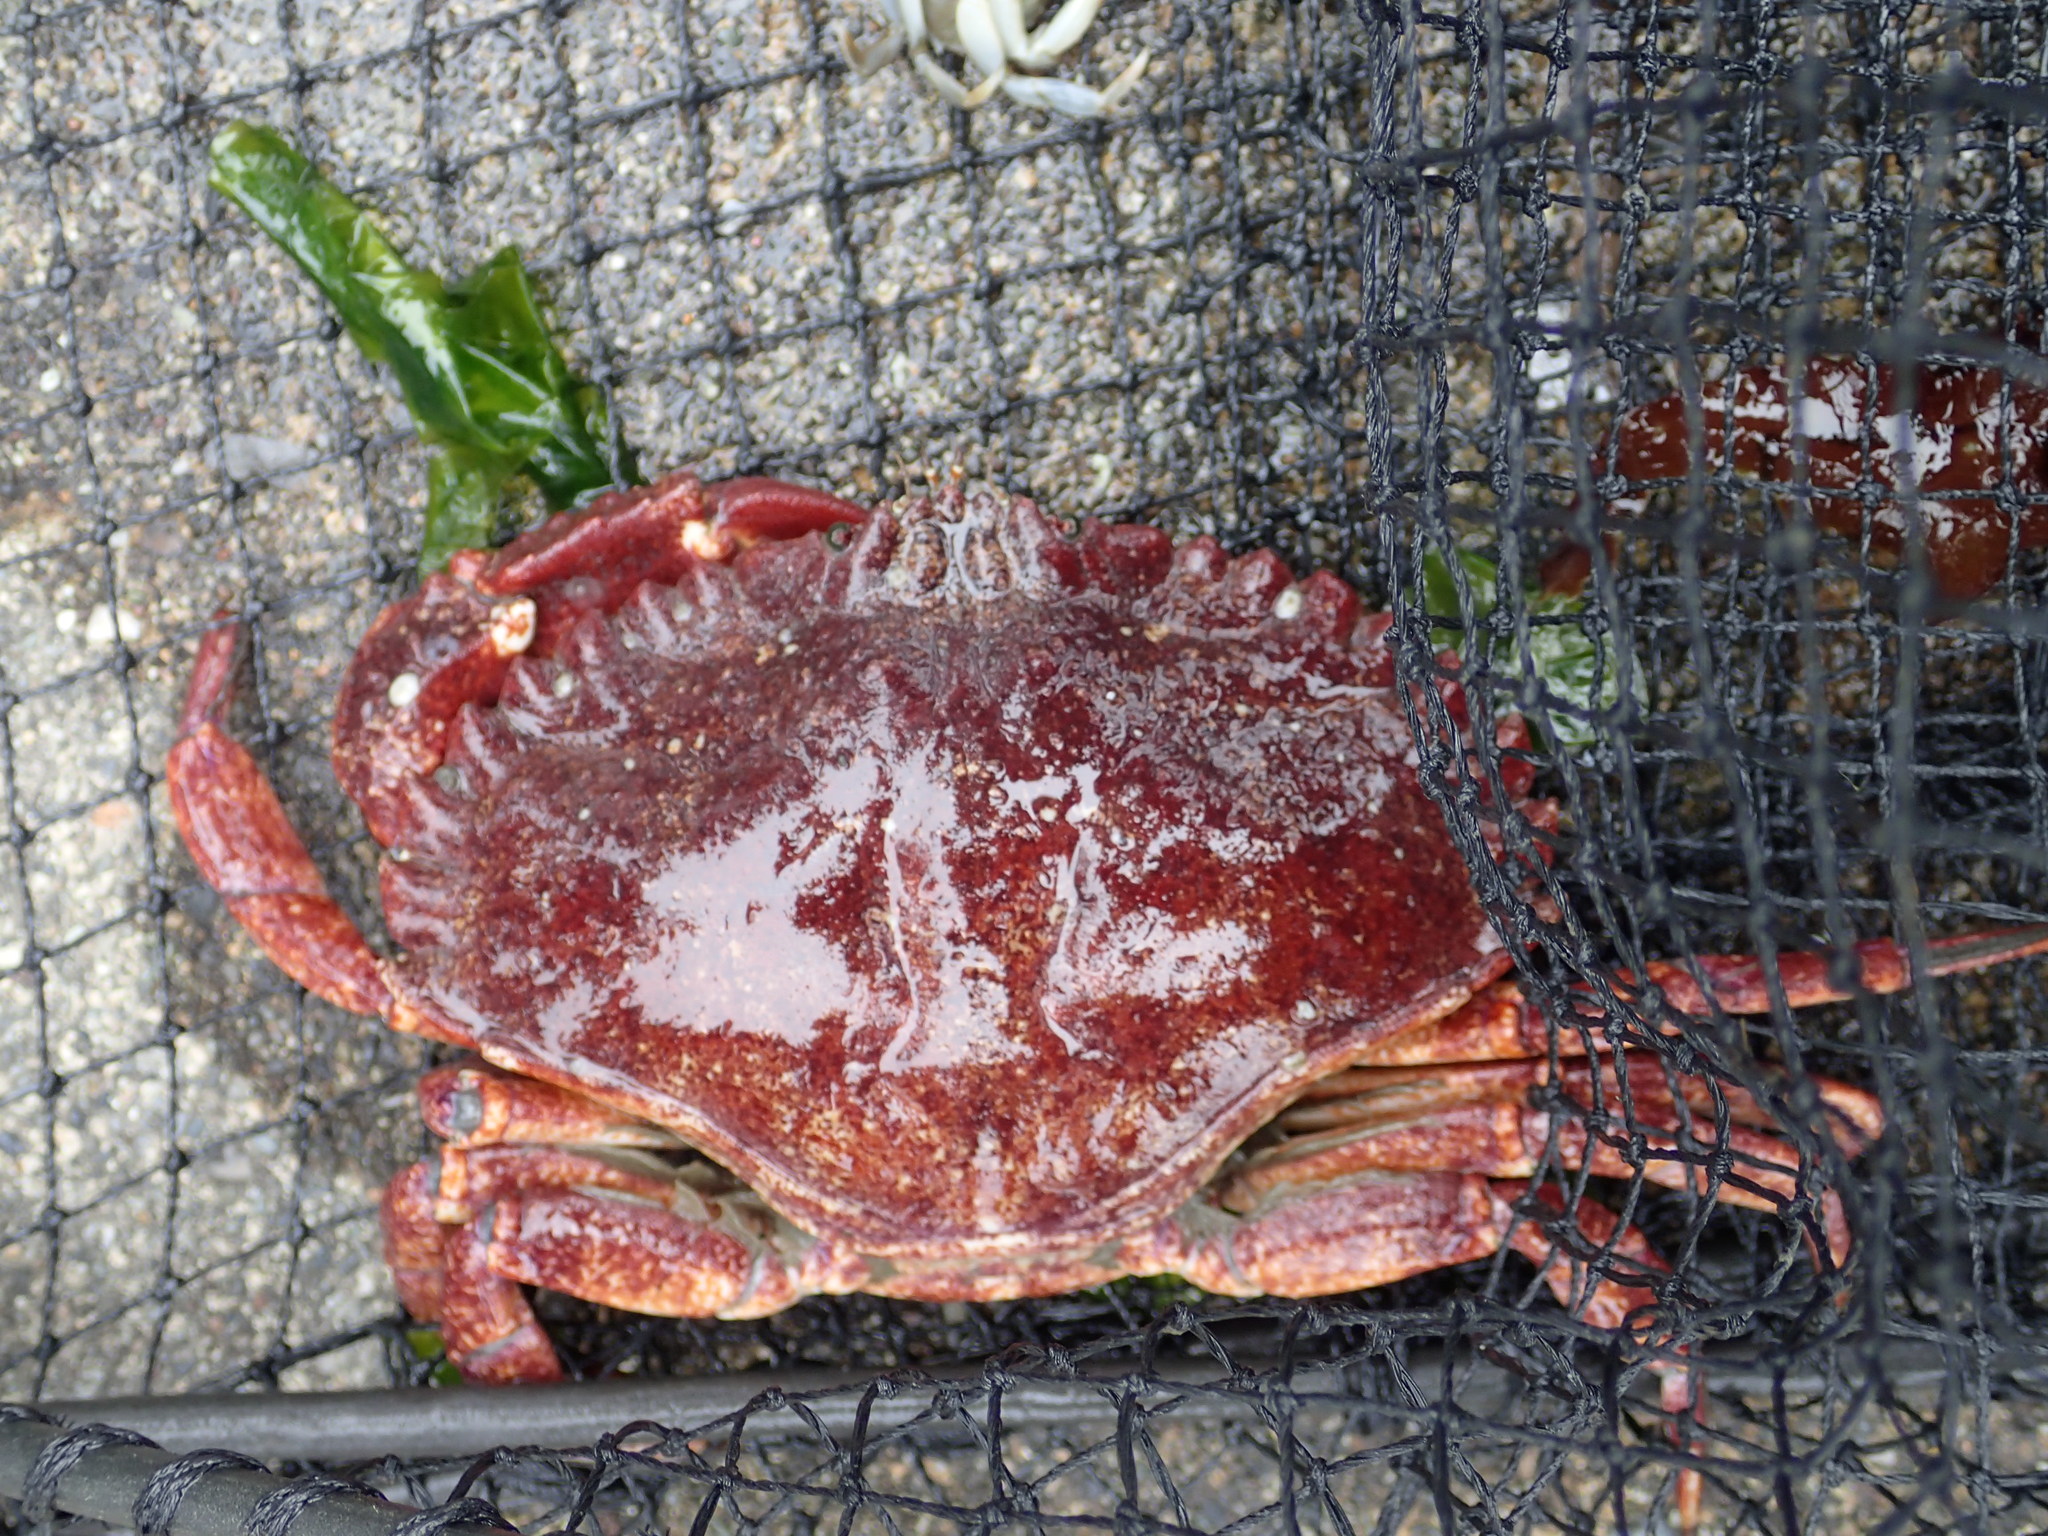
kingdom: Animalia
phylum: Arthropoda
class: Malacostraca
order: Decapoda
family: Cancridae
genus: Cancer
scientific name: Cancer productus
